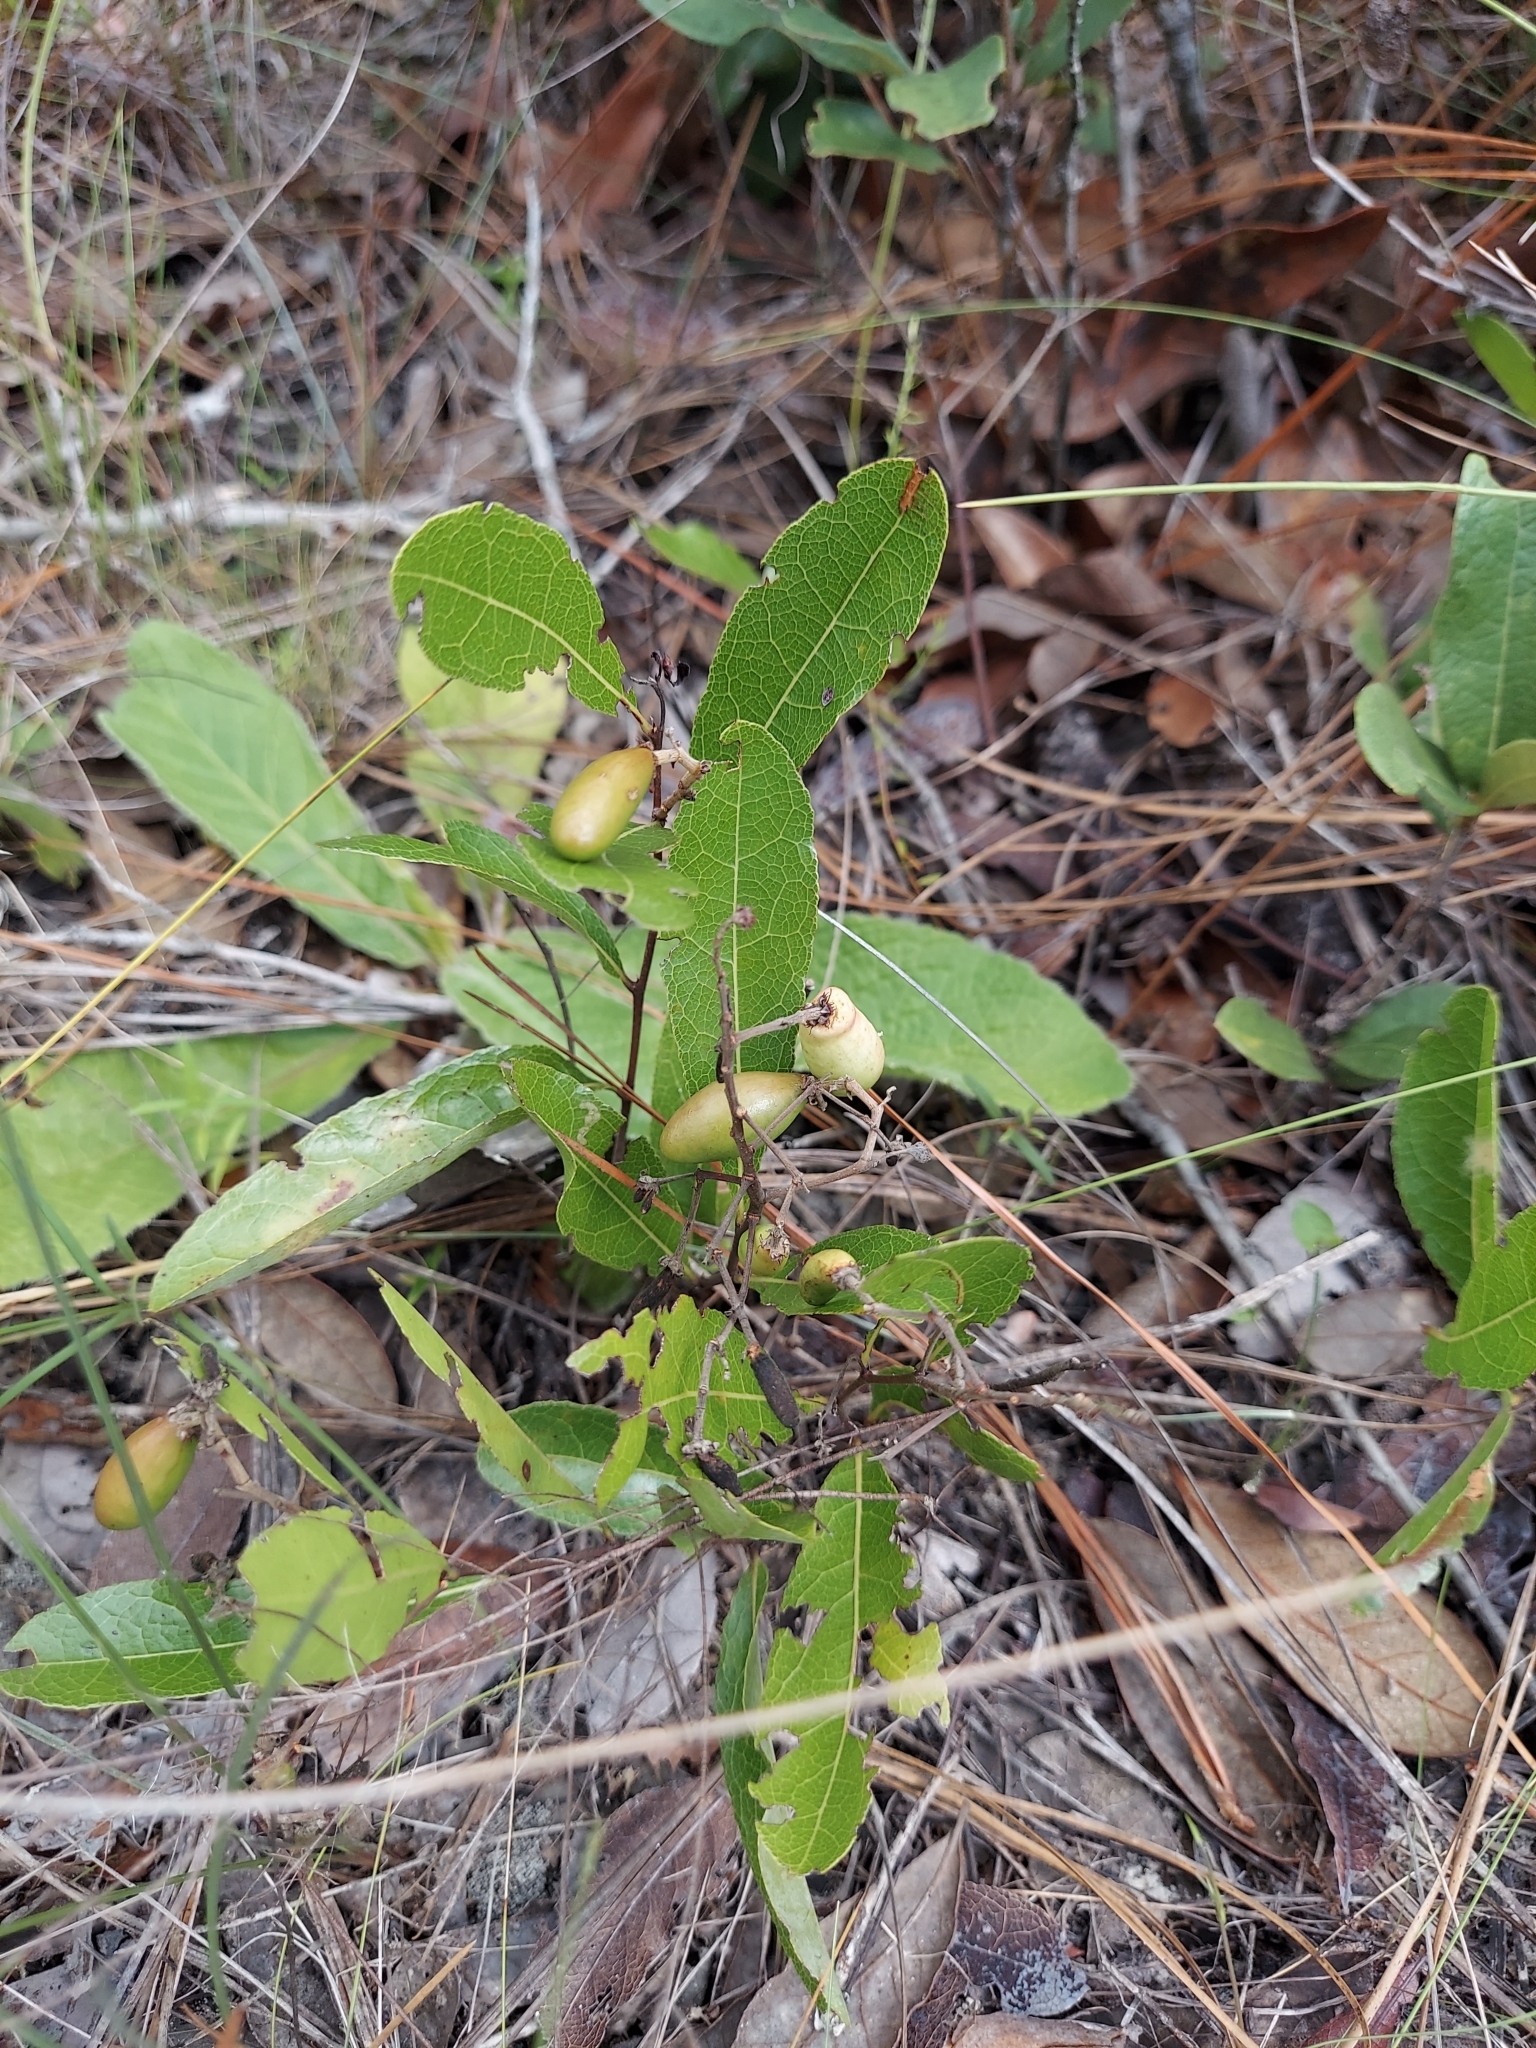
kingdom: Plantae
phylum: Tracheophyta
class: Magnoliopsida
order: Malpighiales
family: Chrysobalanaceae
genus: Geobalanus
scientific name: Geobalanus oblongifolius
